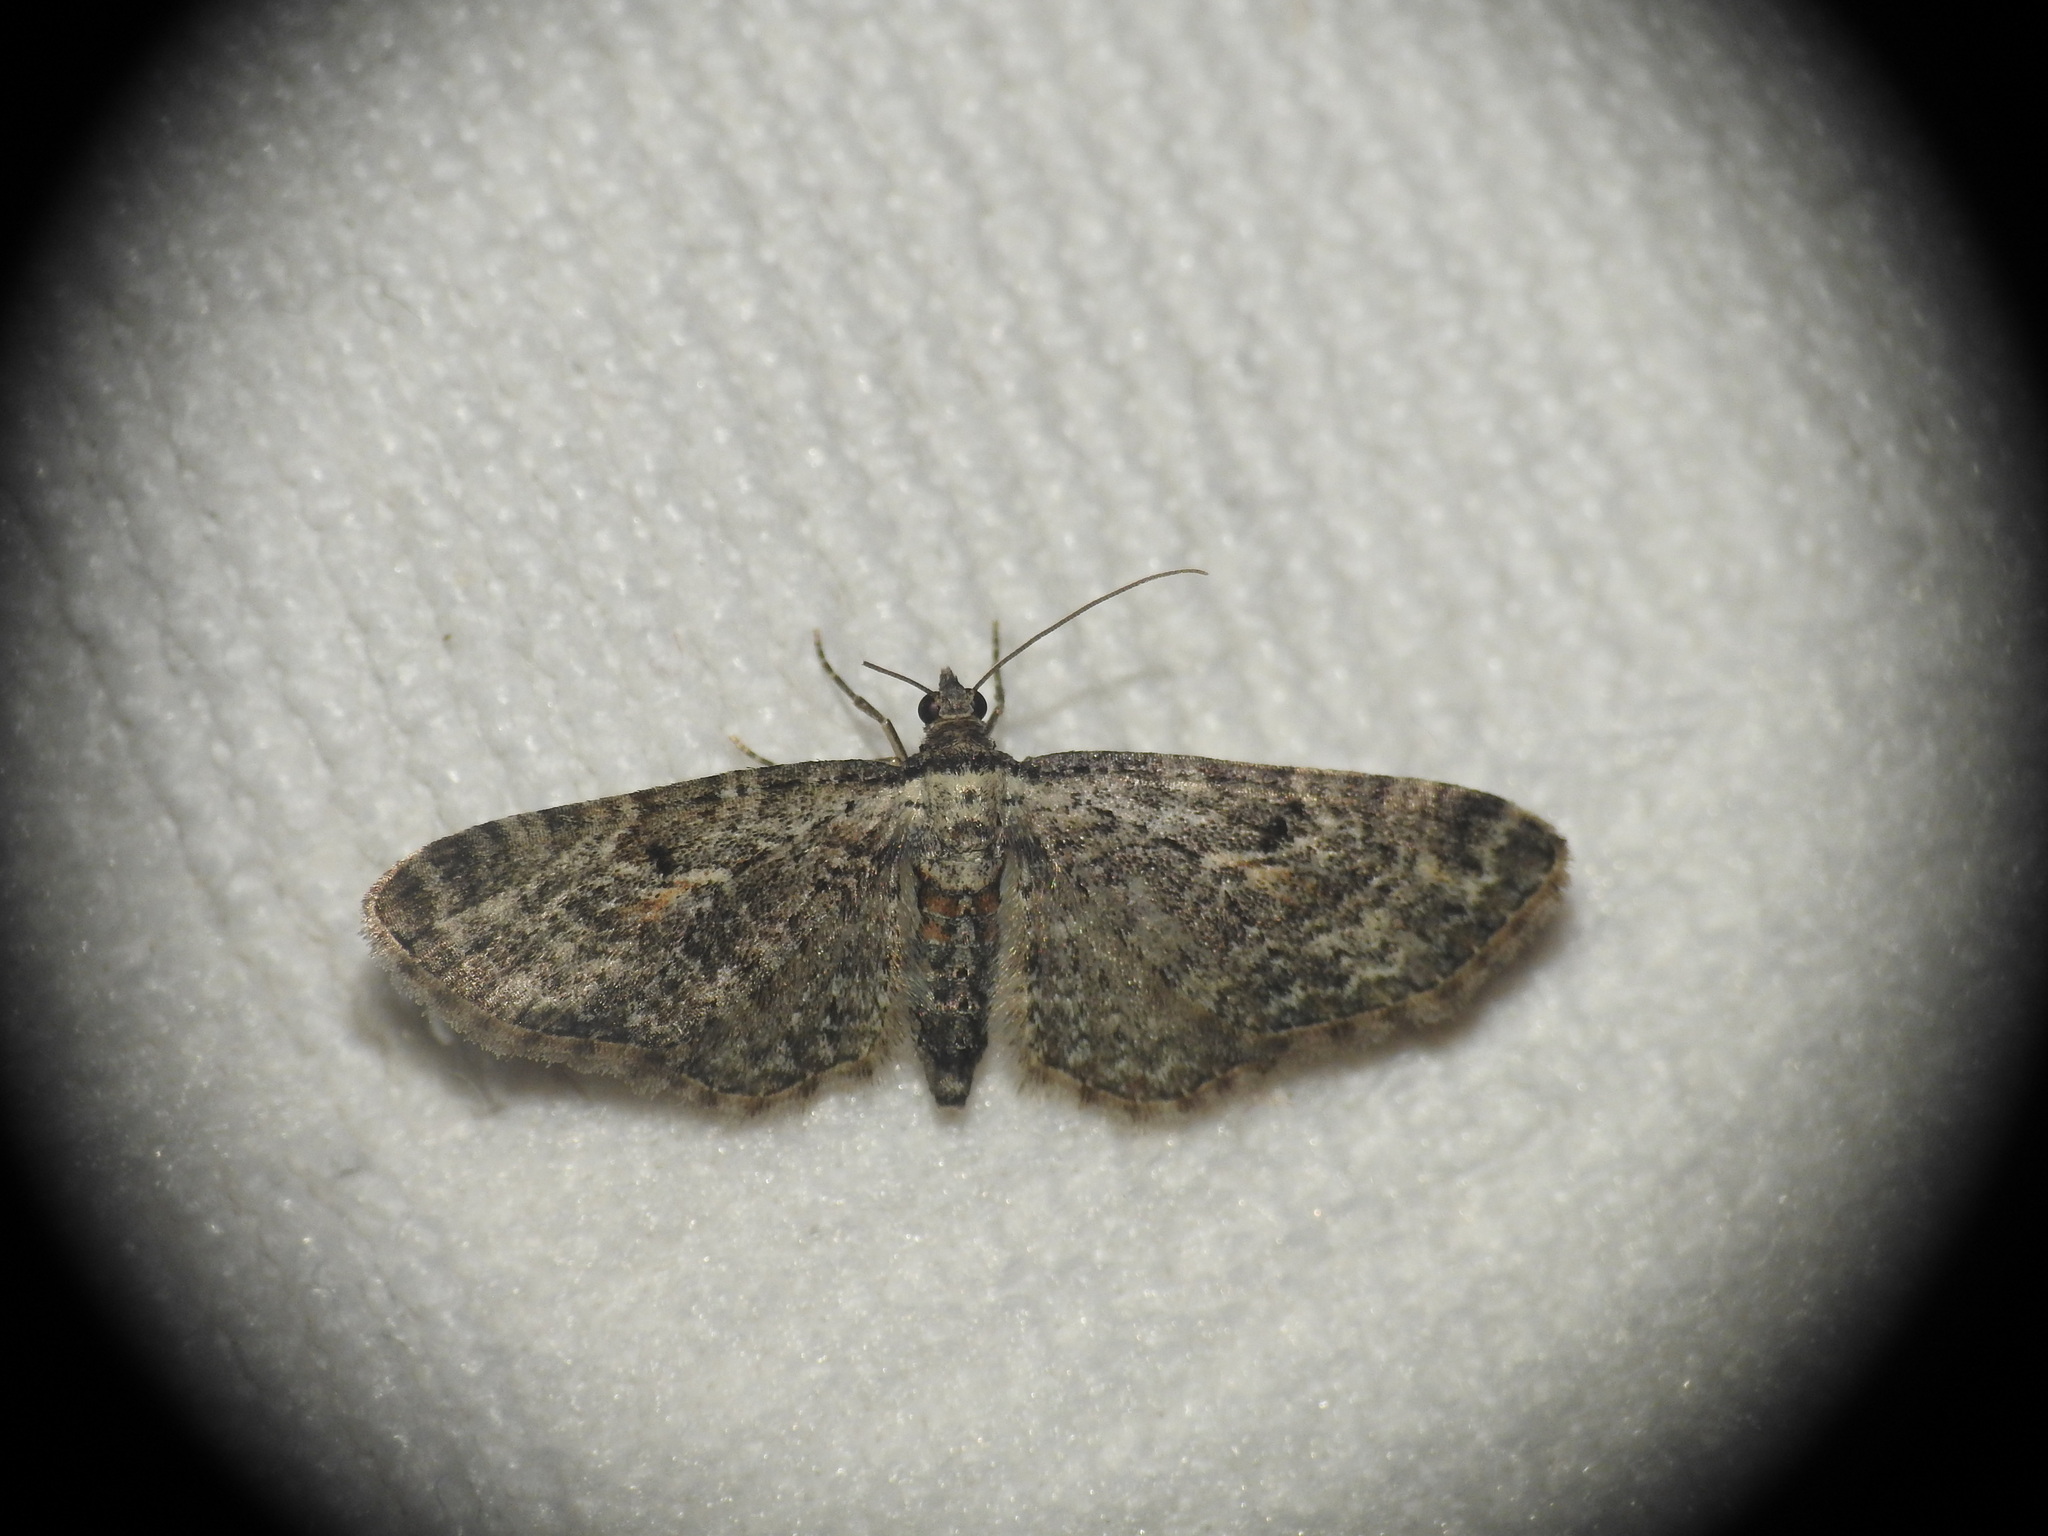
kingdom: Animalia
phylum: Arthropoda
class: Insecta
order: Lepidoptera
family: Geometridae
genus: Eupithecia
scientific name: Eupithecia icterata
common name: Tawny speckled pug
